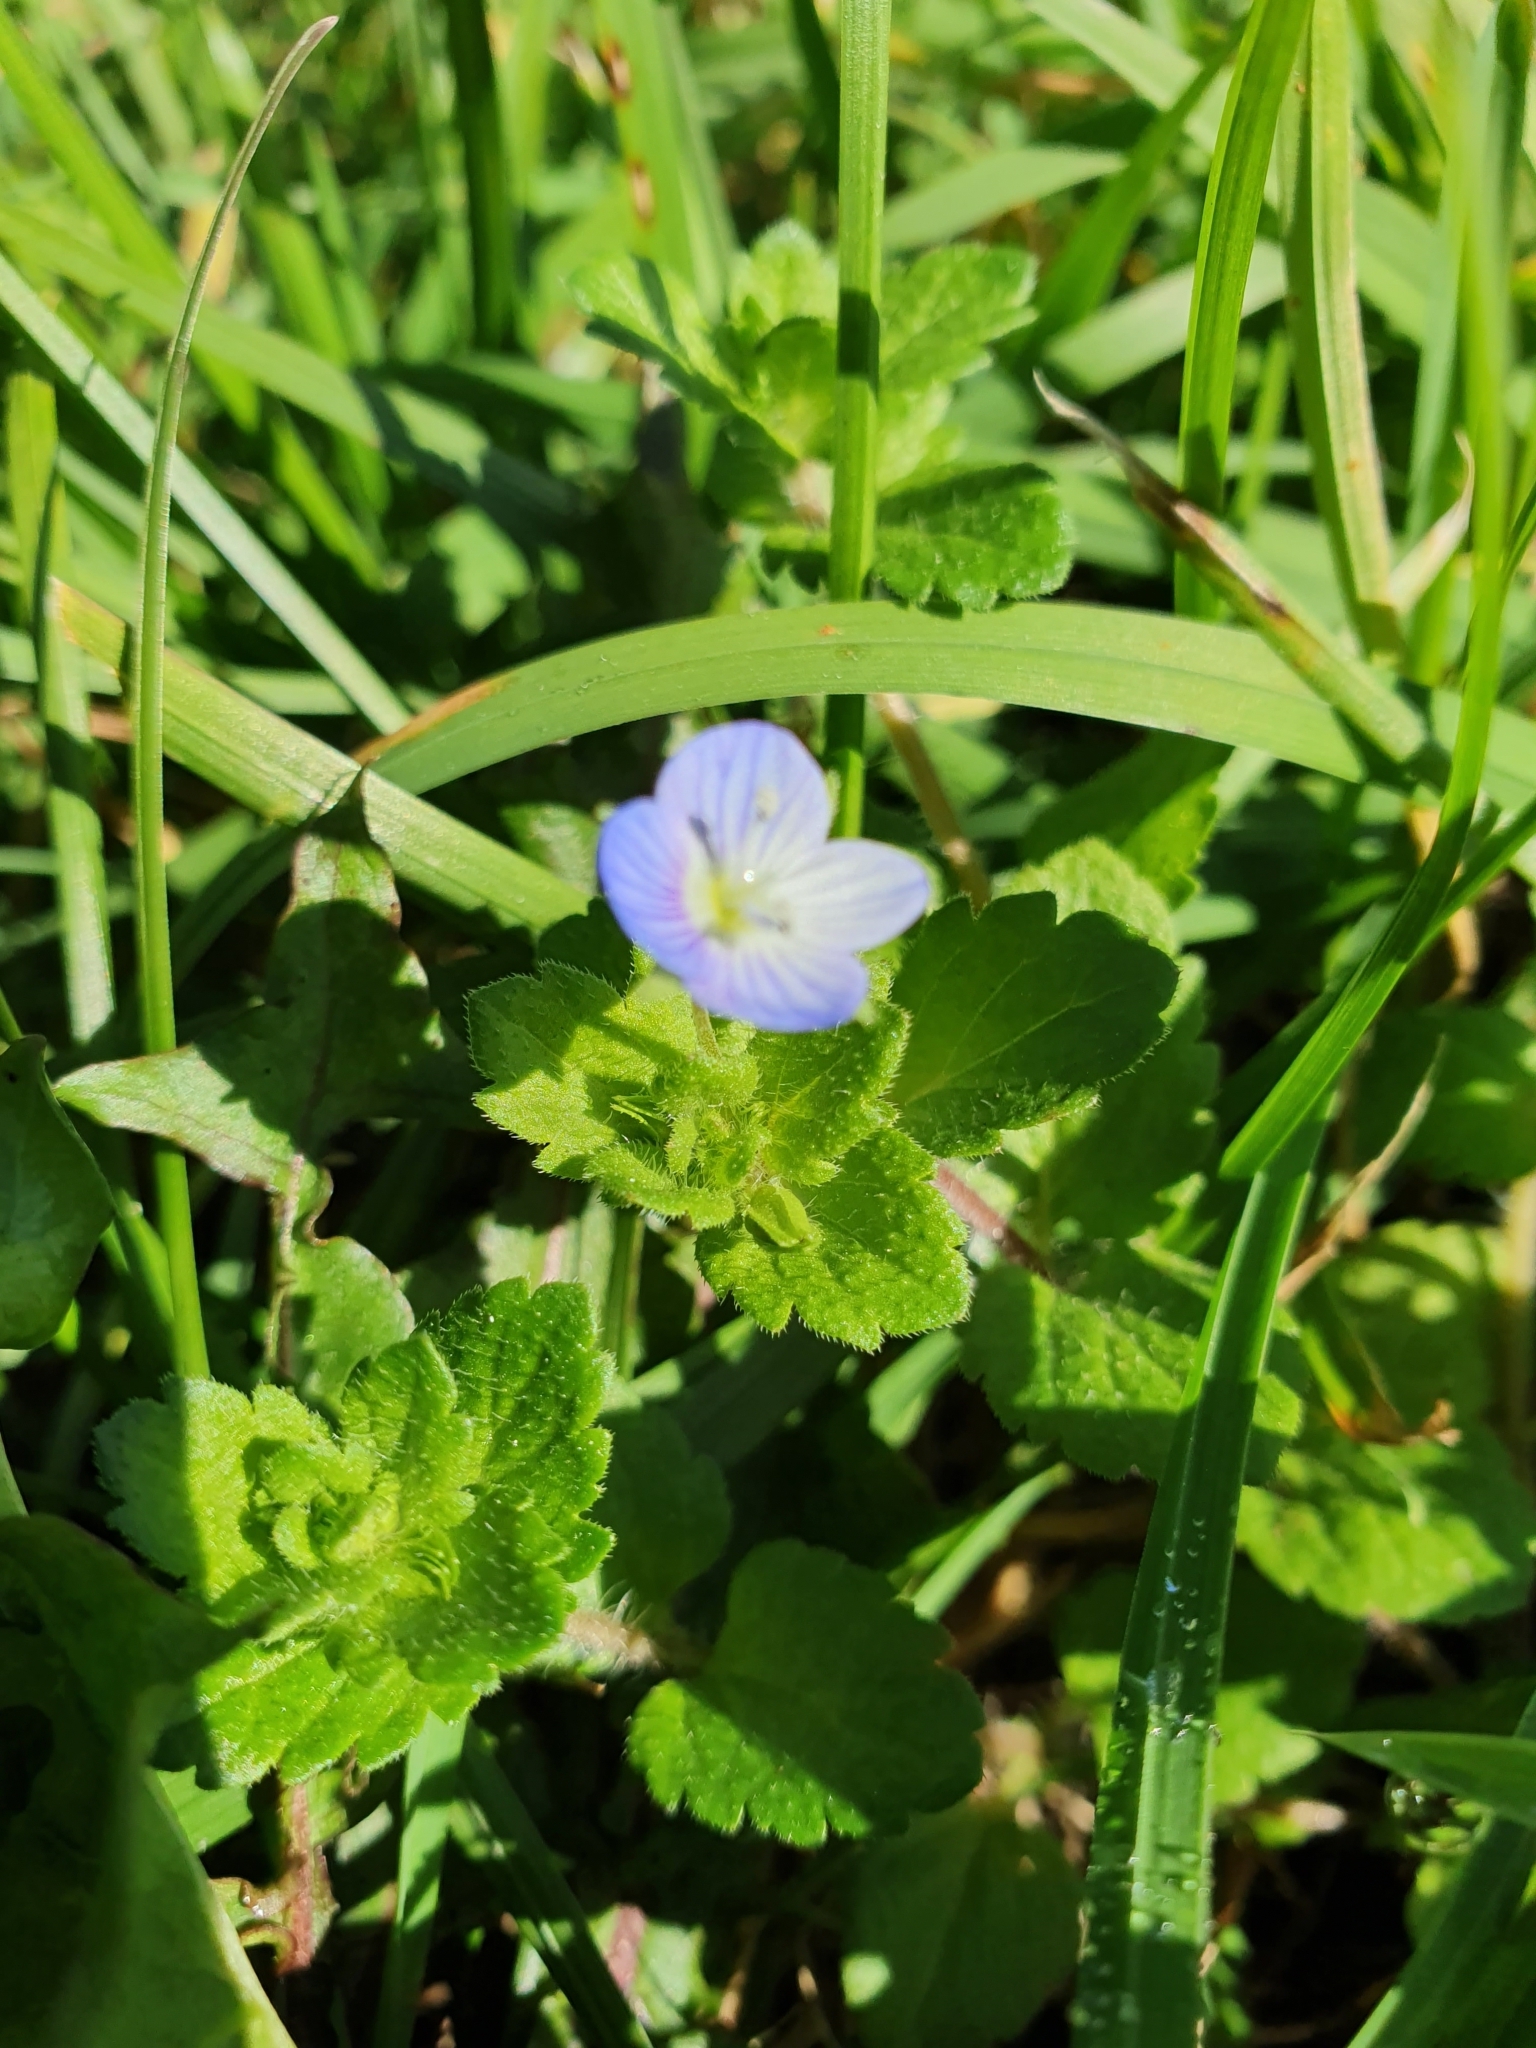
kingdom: Plantae
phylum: Tracheophyta
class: Magnoliopsida
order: Lamiales
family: Plantaginaceae
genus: Veronica
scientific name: Veronica persica
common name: Common field-speedwell
